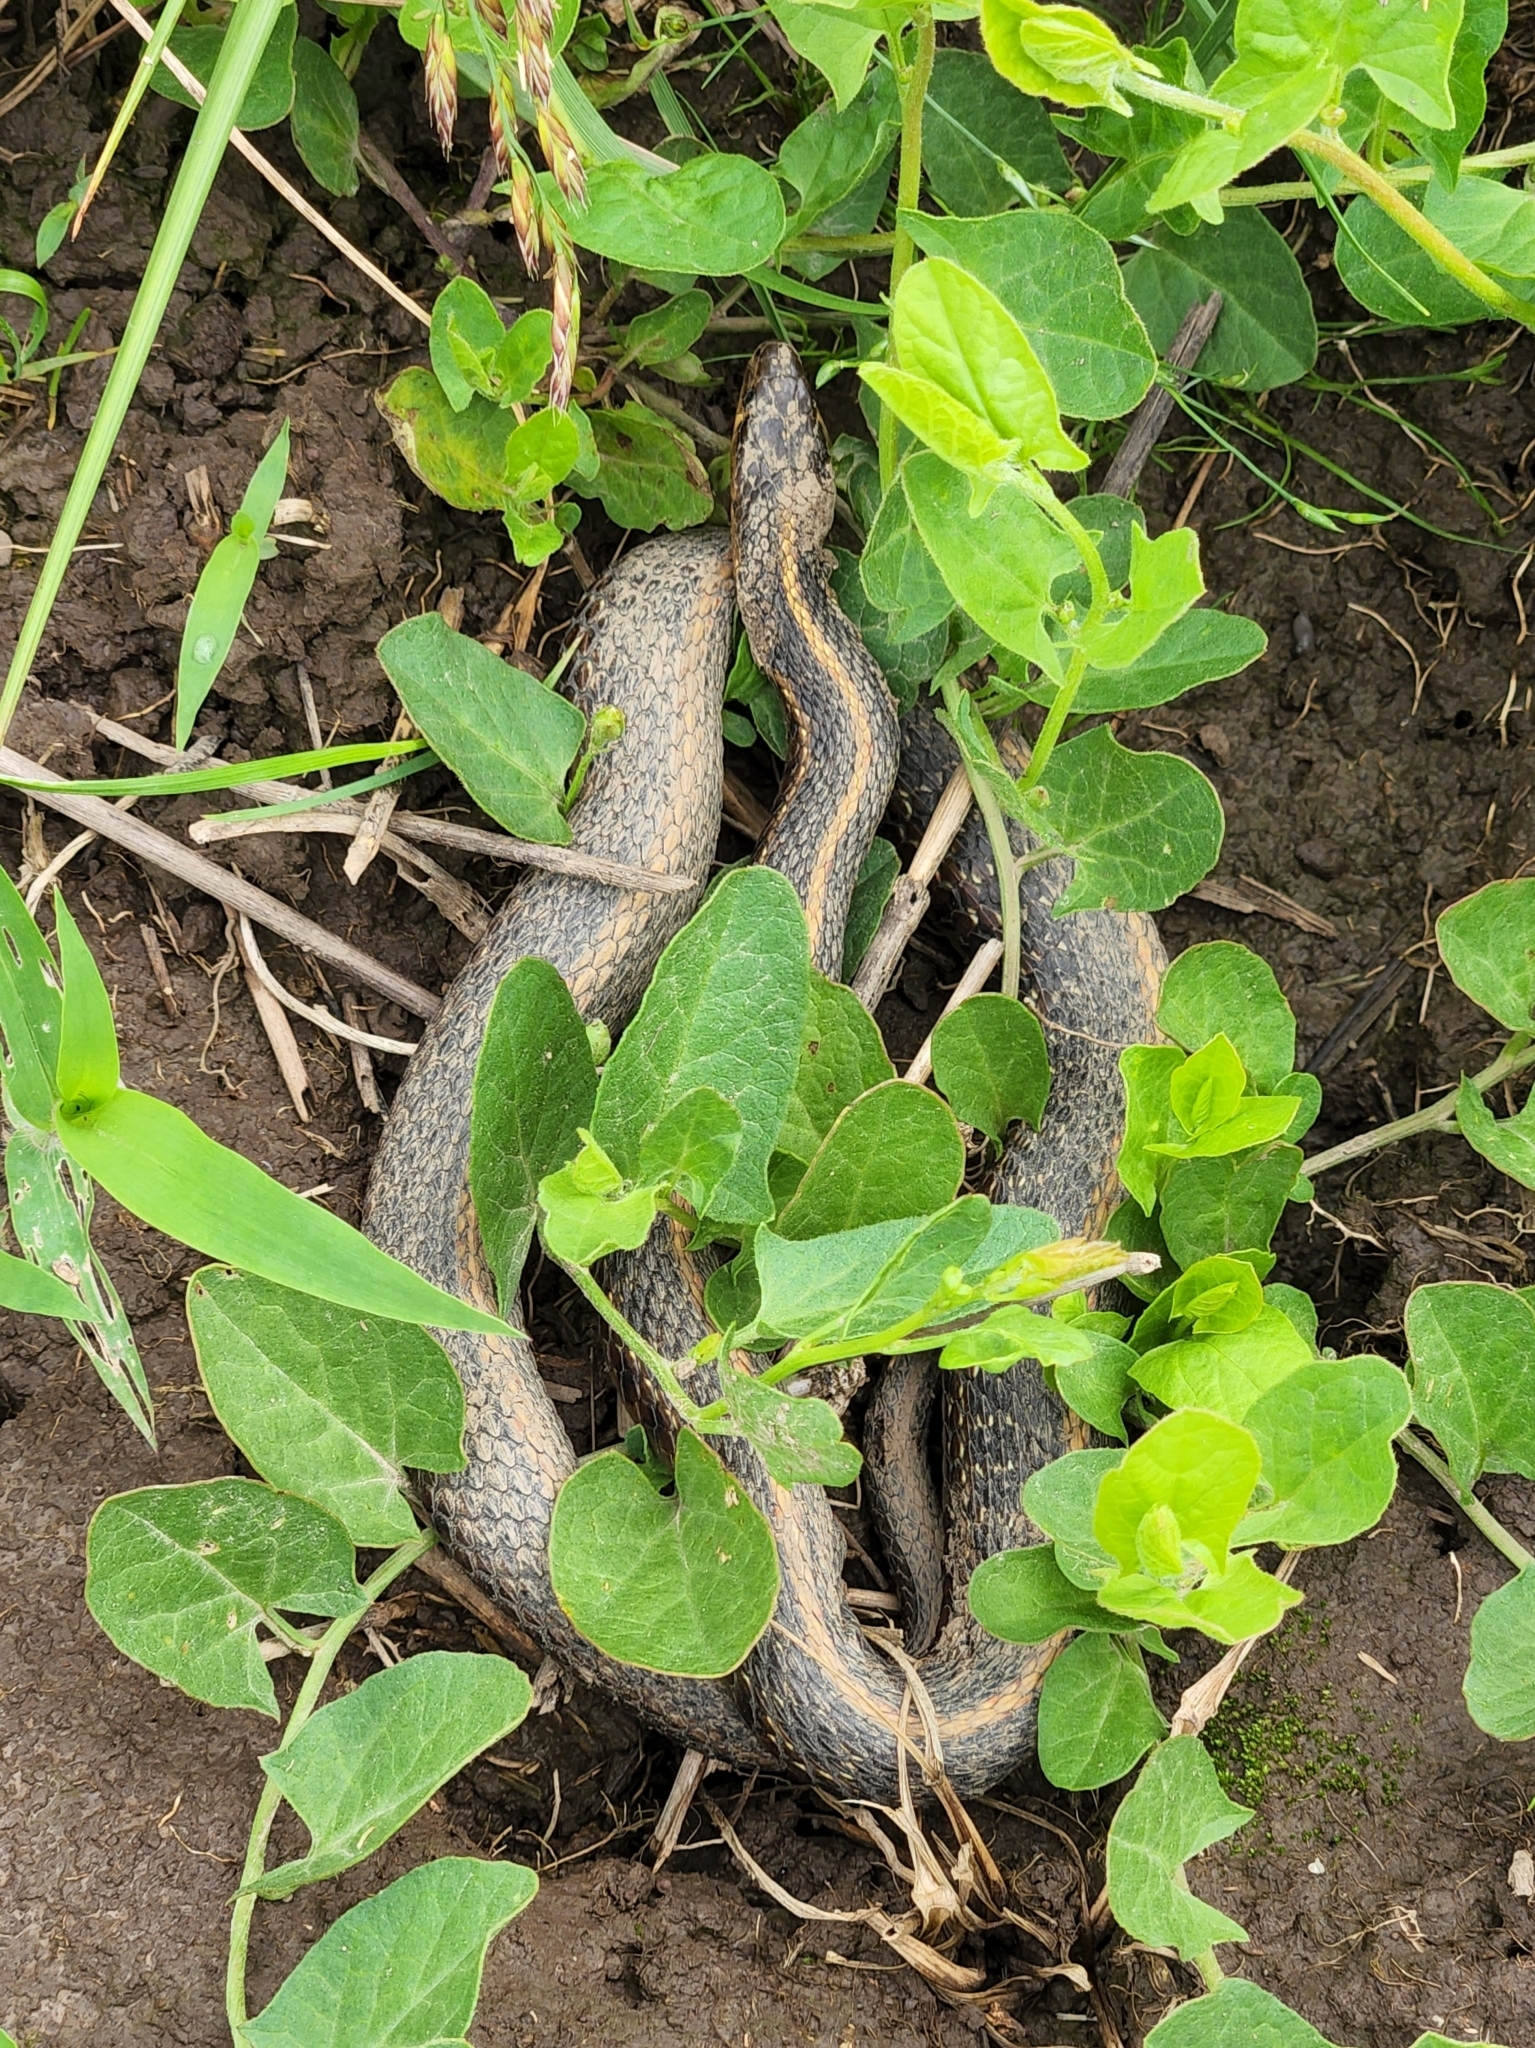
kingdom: Animalia
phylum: Chordata
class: Squamata
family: Colubridae
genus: Thamnophis
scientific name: Thamnophis ordinoides
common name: Northwestern garter snake
